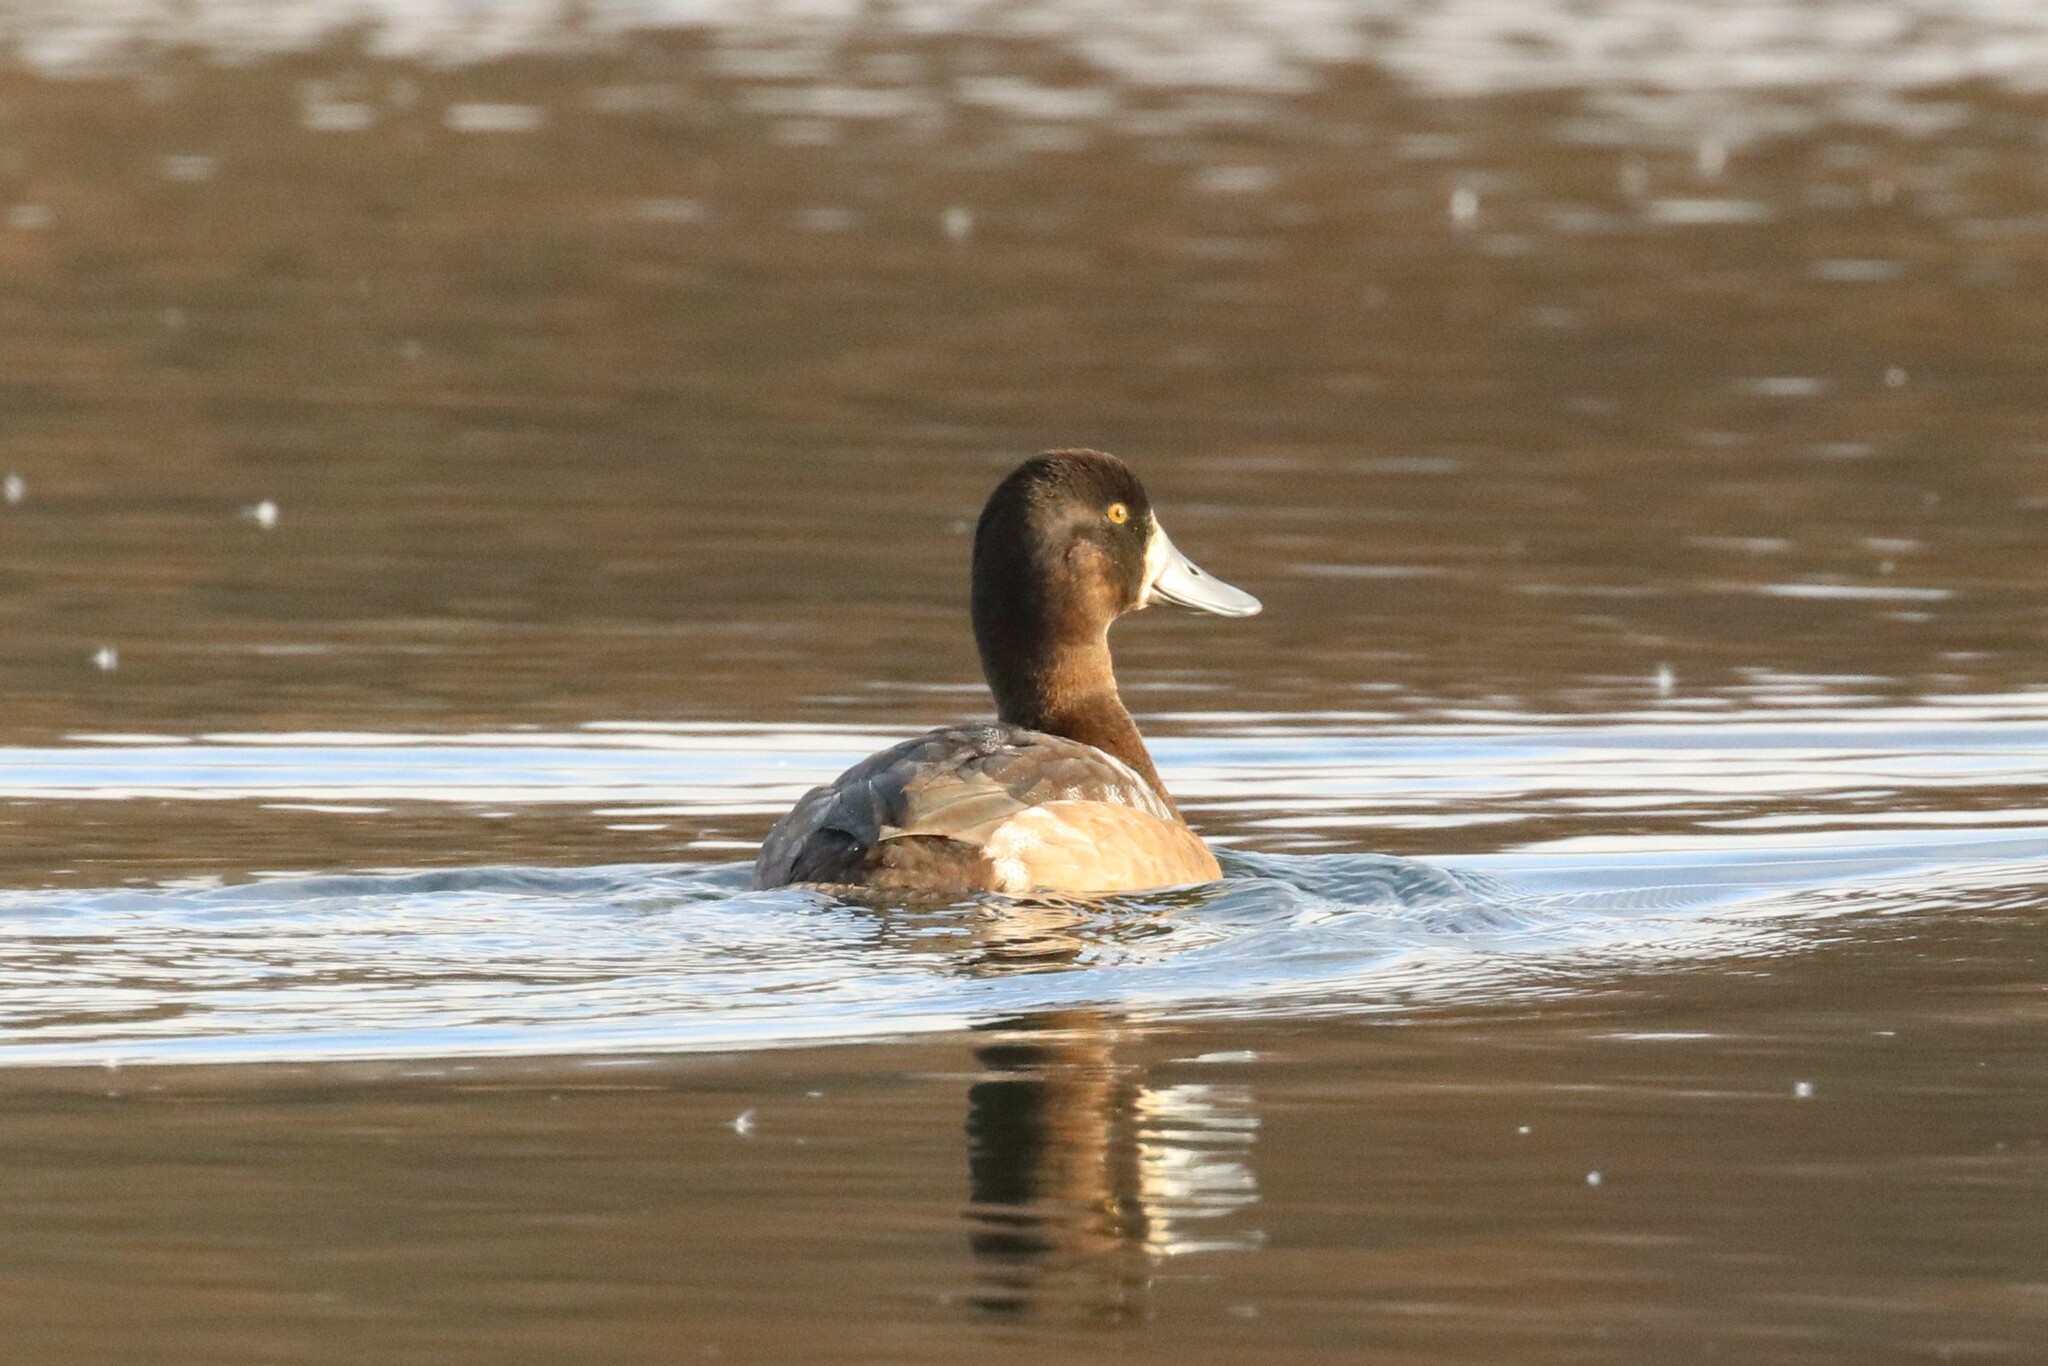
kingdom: Animalia
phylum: Chordata
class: Aves
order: Anseriformes
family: Anatidae
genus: Aythya
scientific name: Aythya marila
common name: Greater scaup
